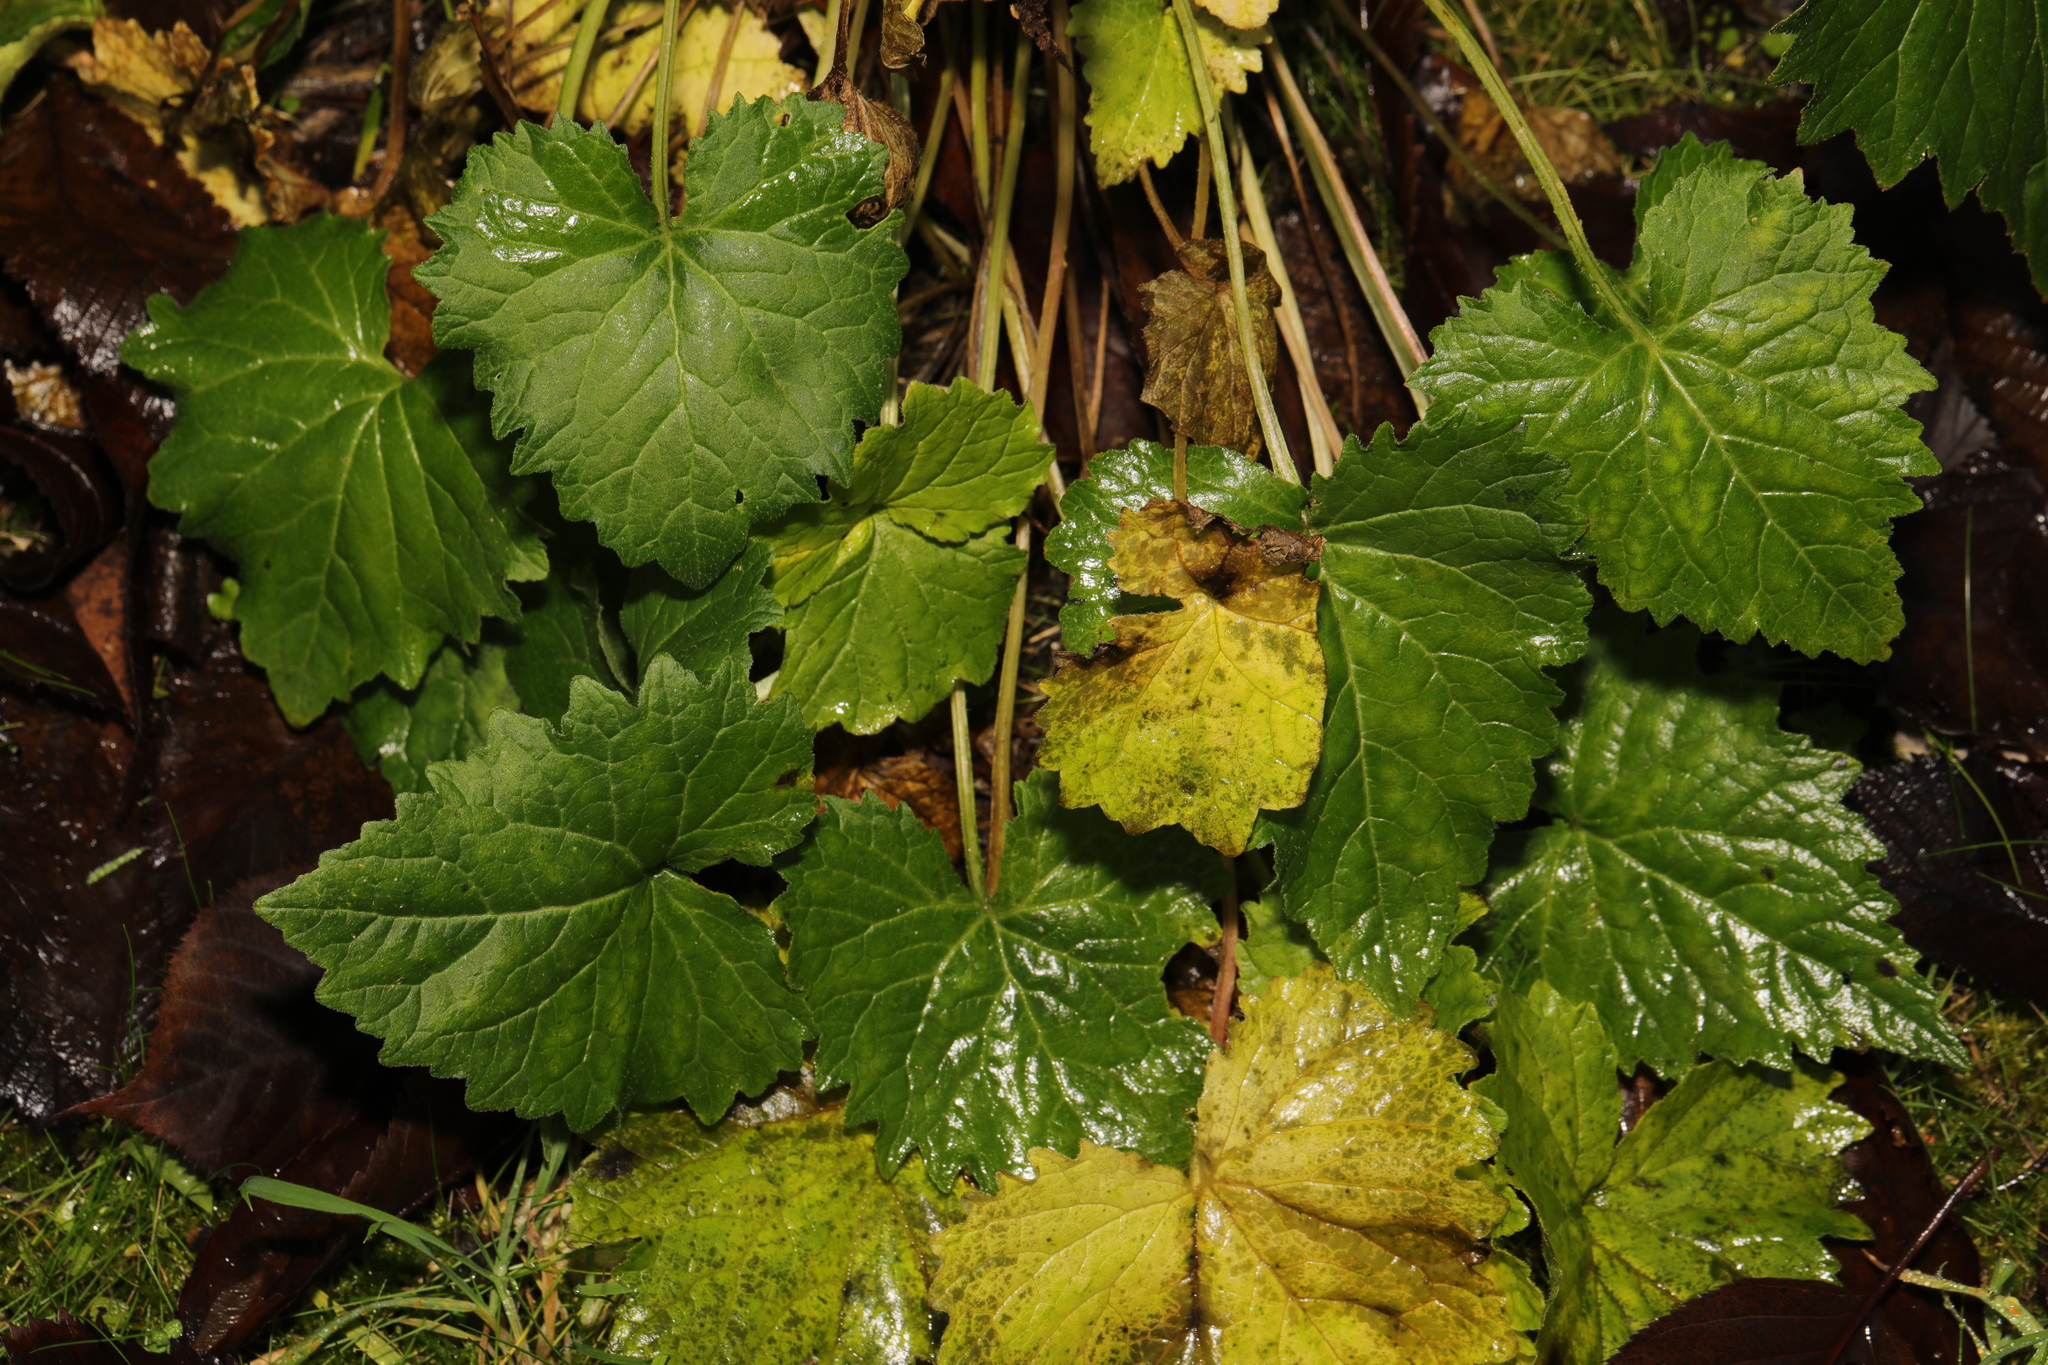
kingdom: Plantae
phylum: Tracheophyta
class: Magnoliopsida
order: Asterales
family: Campanulaceae
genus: Campanula
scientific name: Campanula trachelium
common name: Nettle-leaved bellflower
